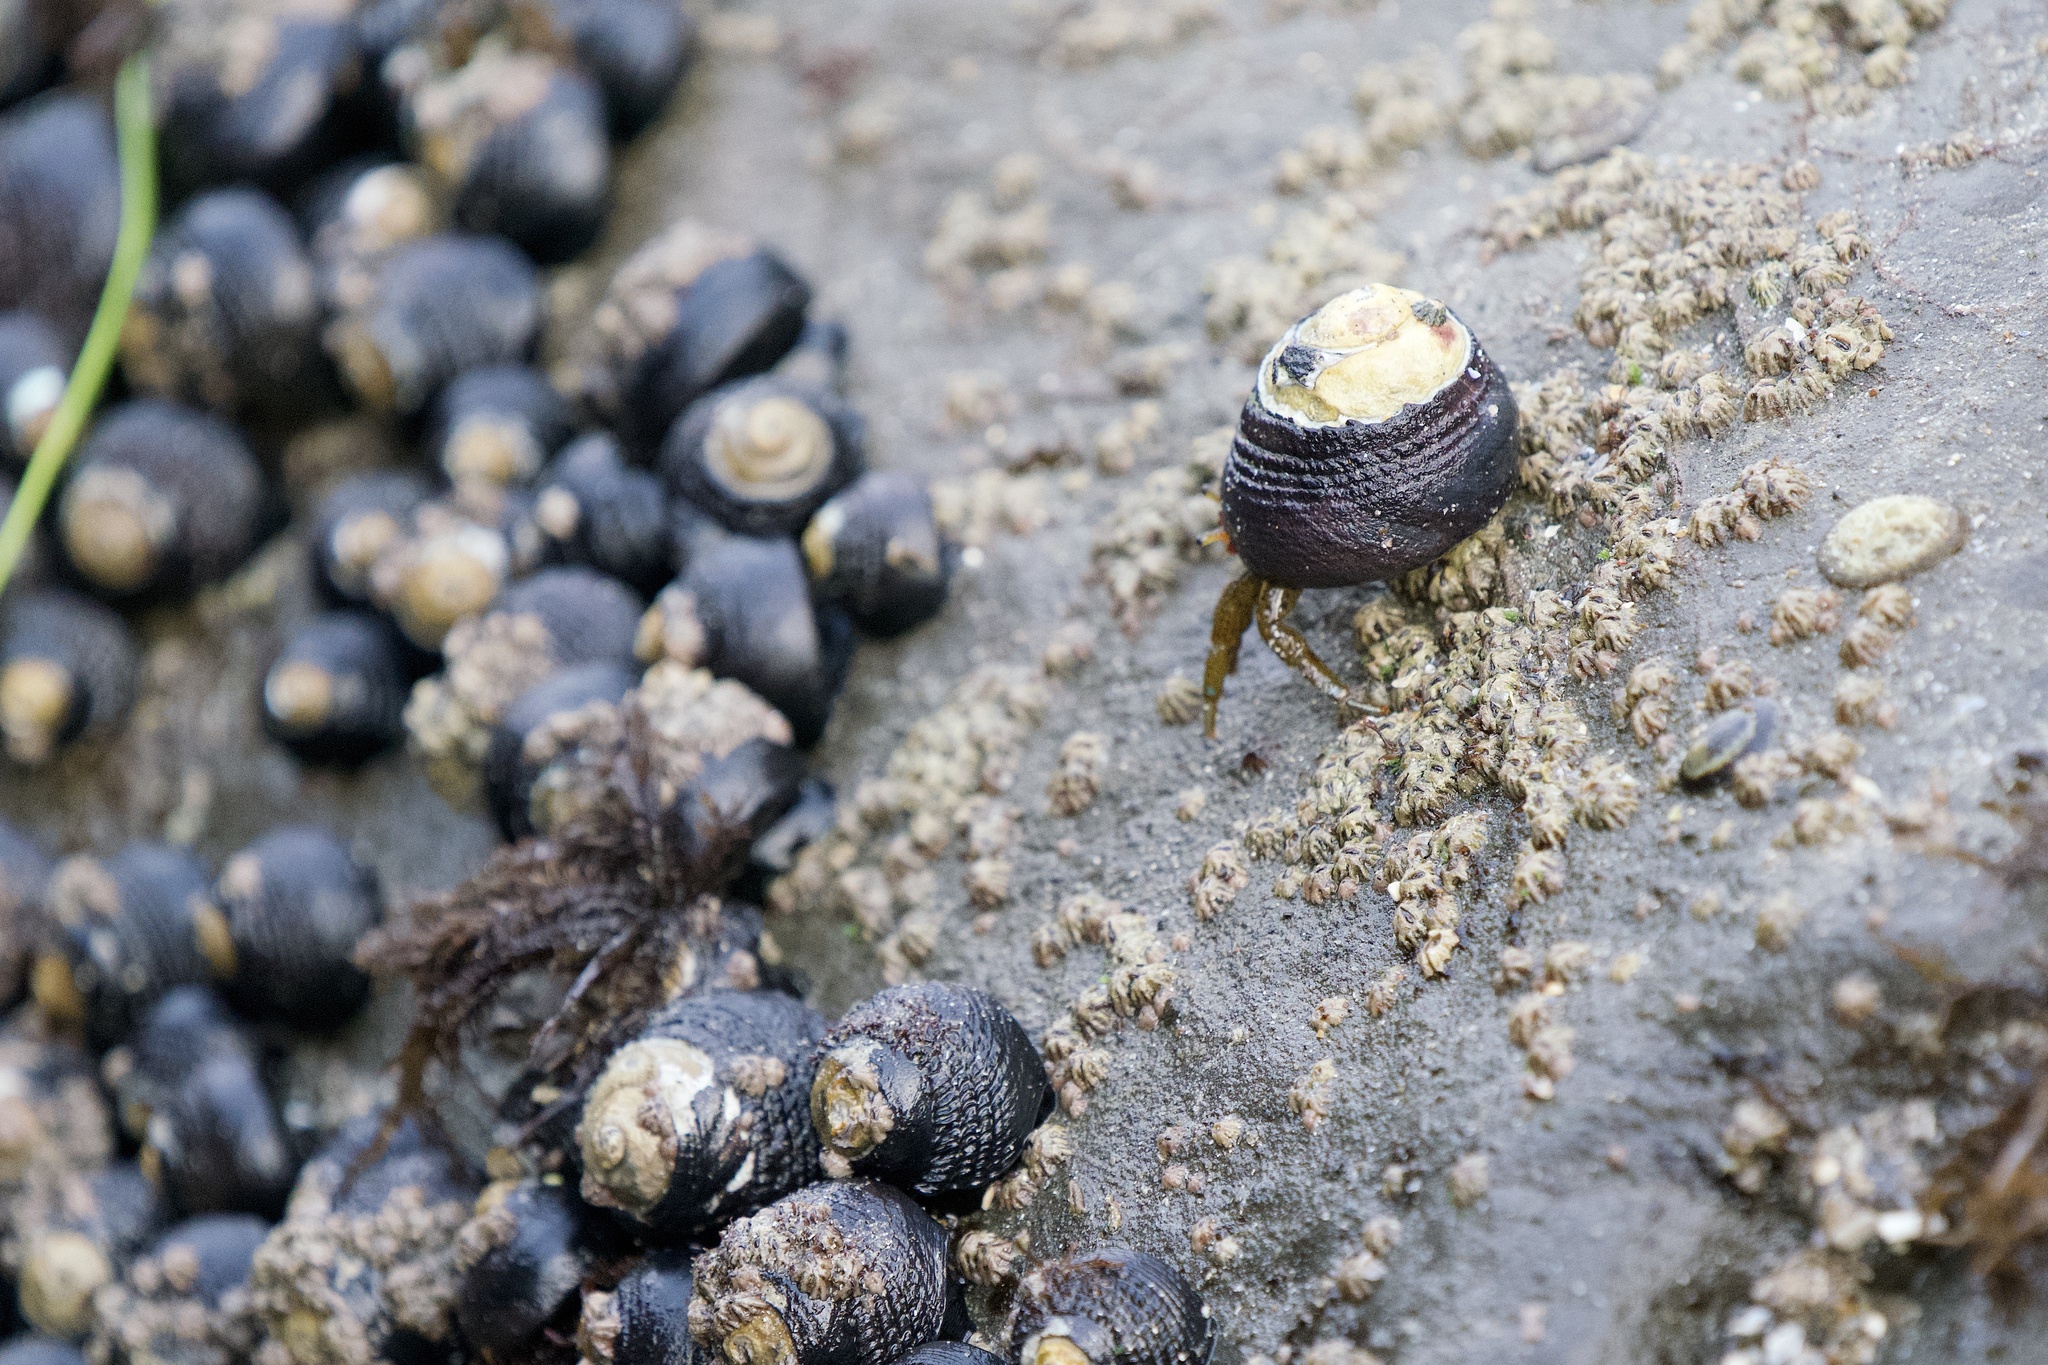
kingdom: Animalia
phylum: Arthropoda
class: Malacostraca
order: Decapoda
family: Paguridae
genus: Pagurus
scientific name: Pagurus samuelis
